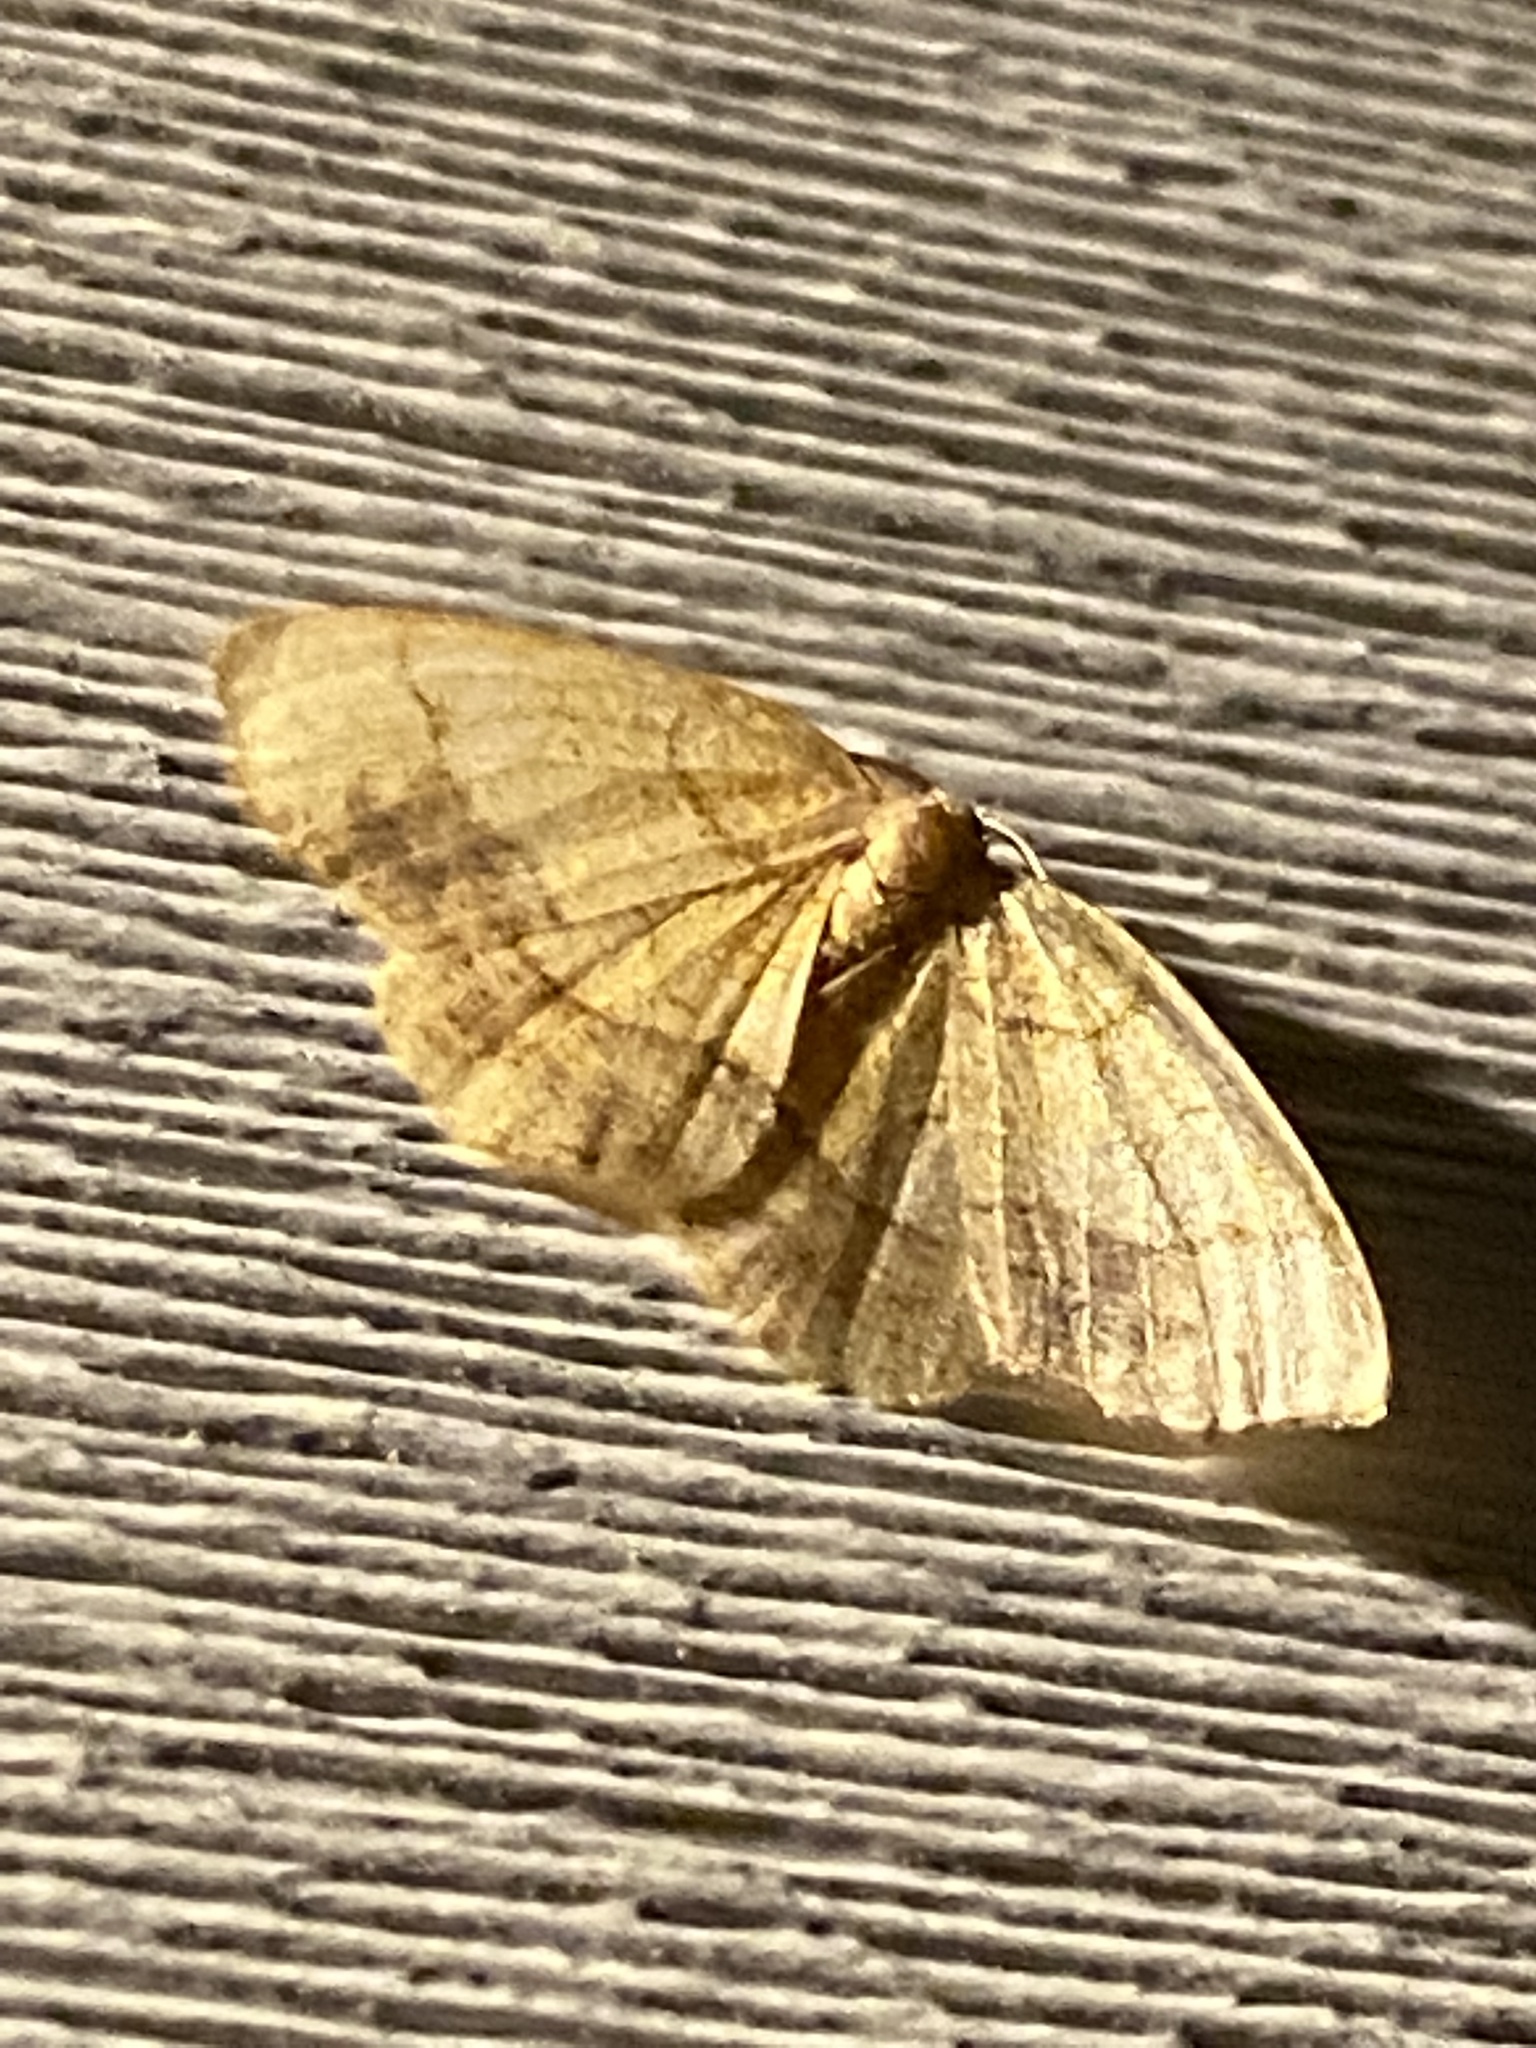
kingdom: Animalia
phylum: Arthropoda
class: Insecta
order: Lepidoptera
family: Geometridae
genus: Nematocampa
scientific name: Nematocampa resistaria
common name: Horned spanworm moth
